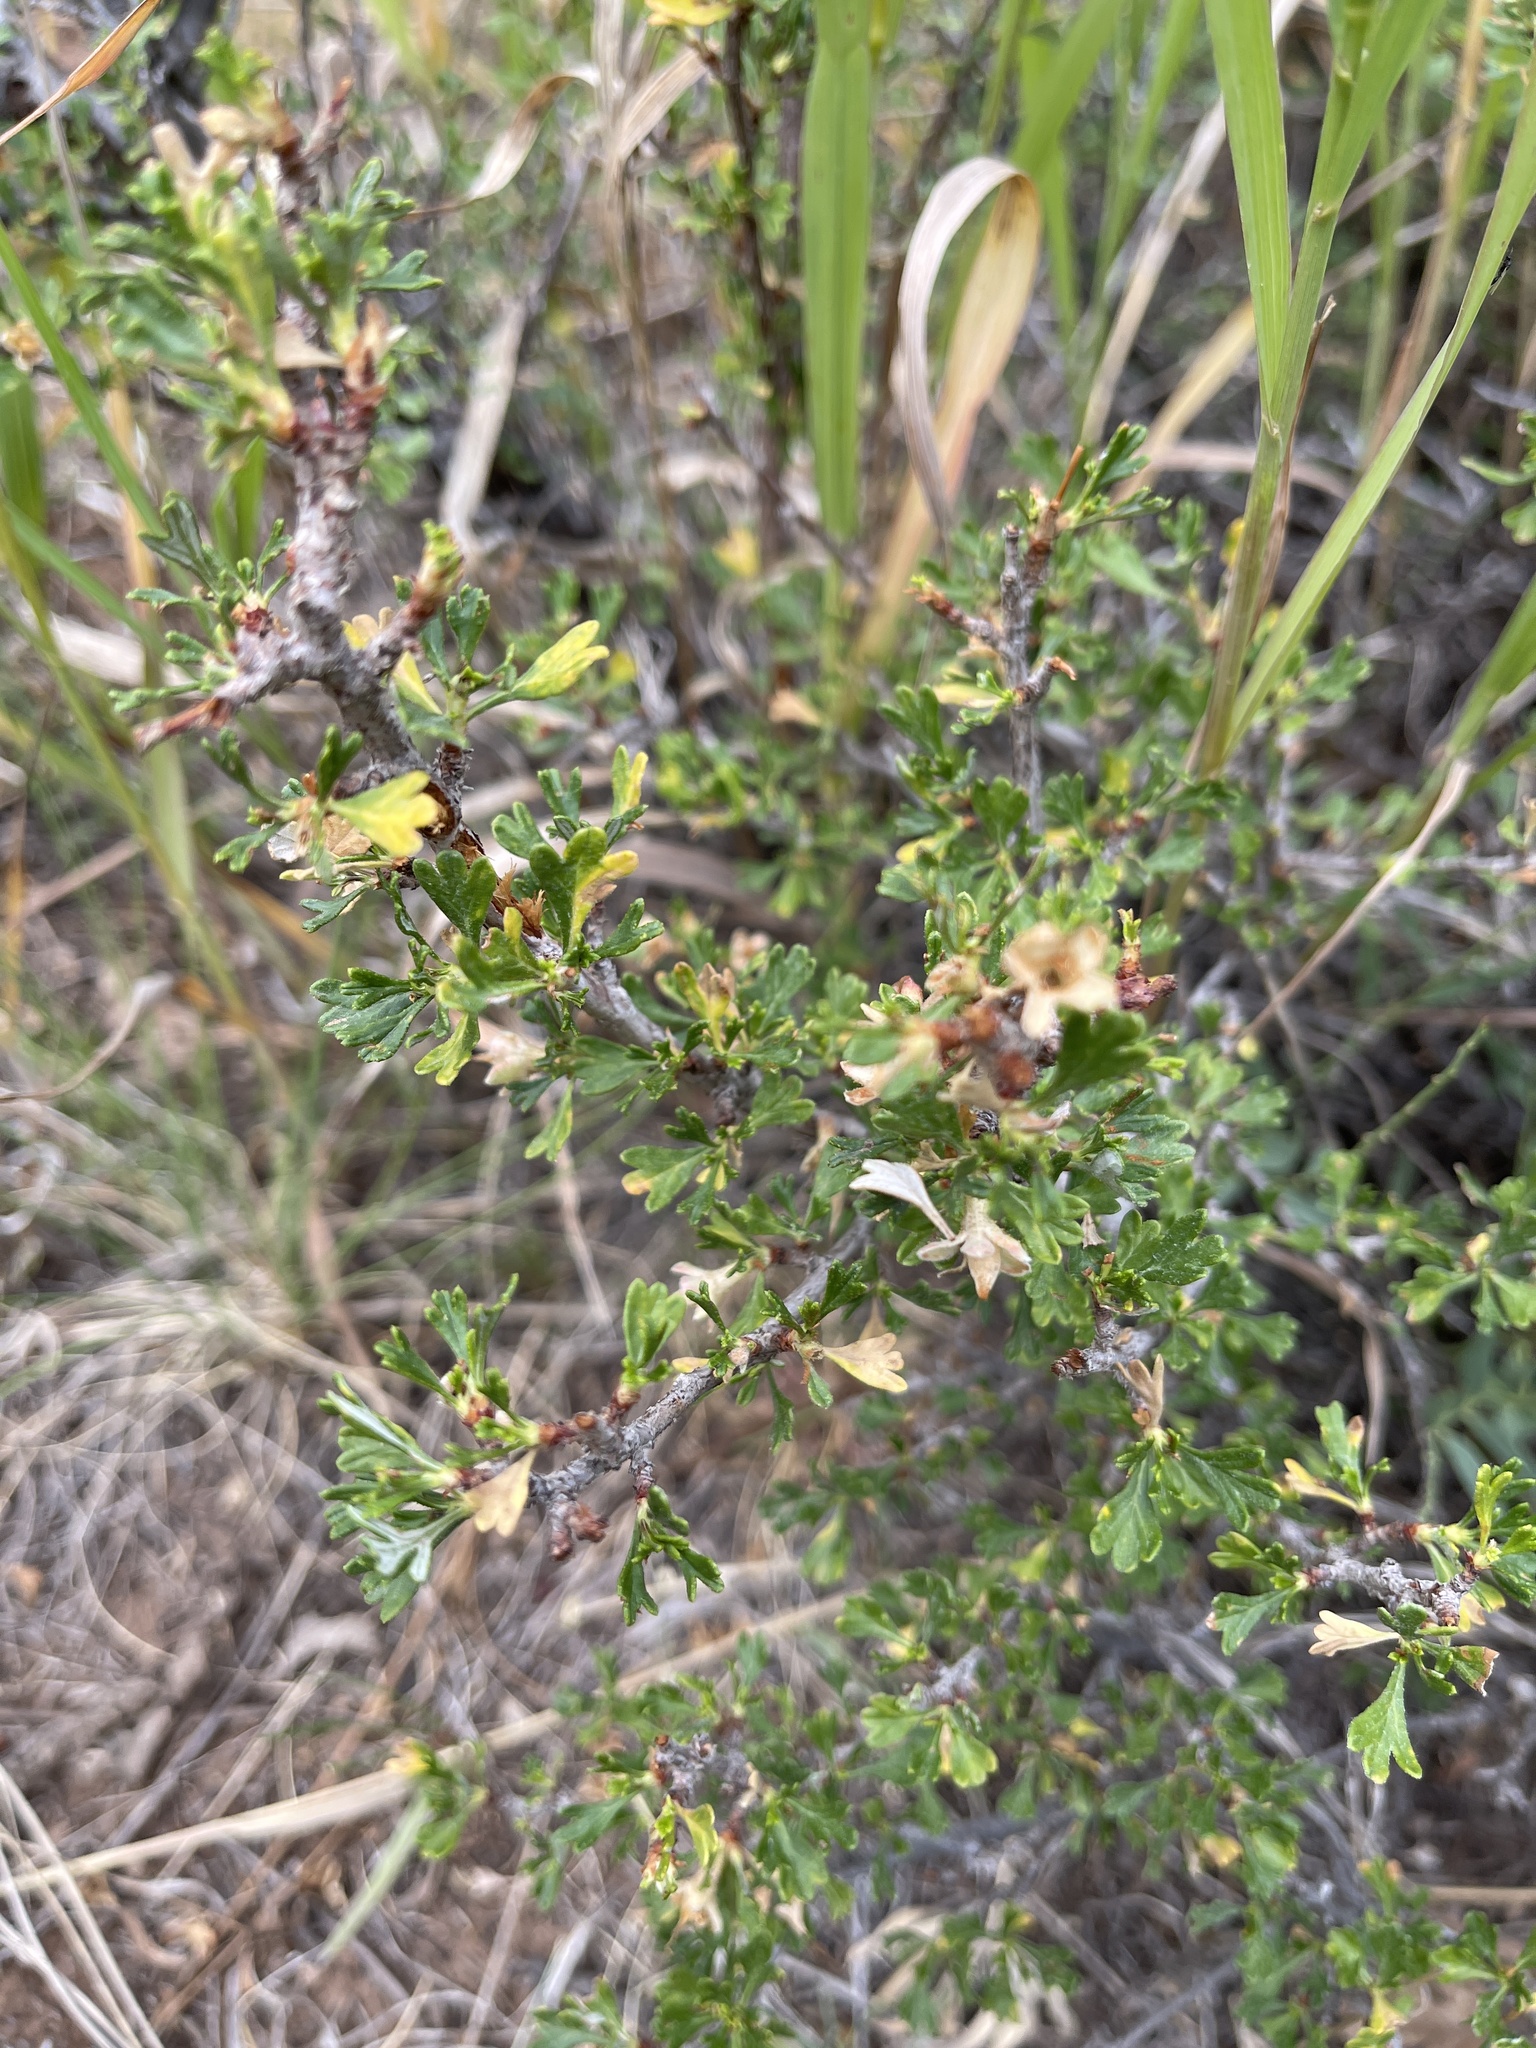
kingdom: Plantae
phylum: Tracheophyta
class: Magnoliopsida
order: Rosales
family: Rosaceae
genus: Purshia
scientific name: Purshia tridentata
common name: Antelope bitterbrush
